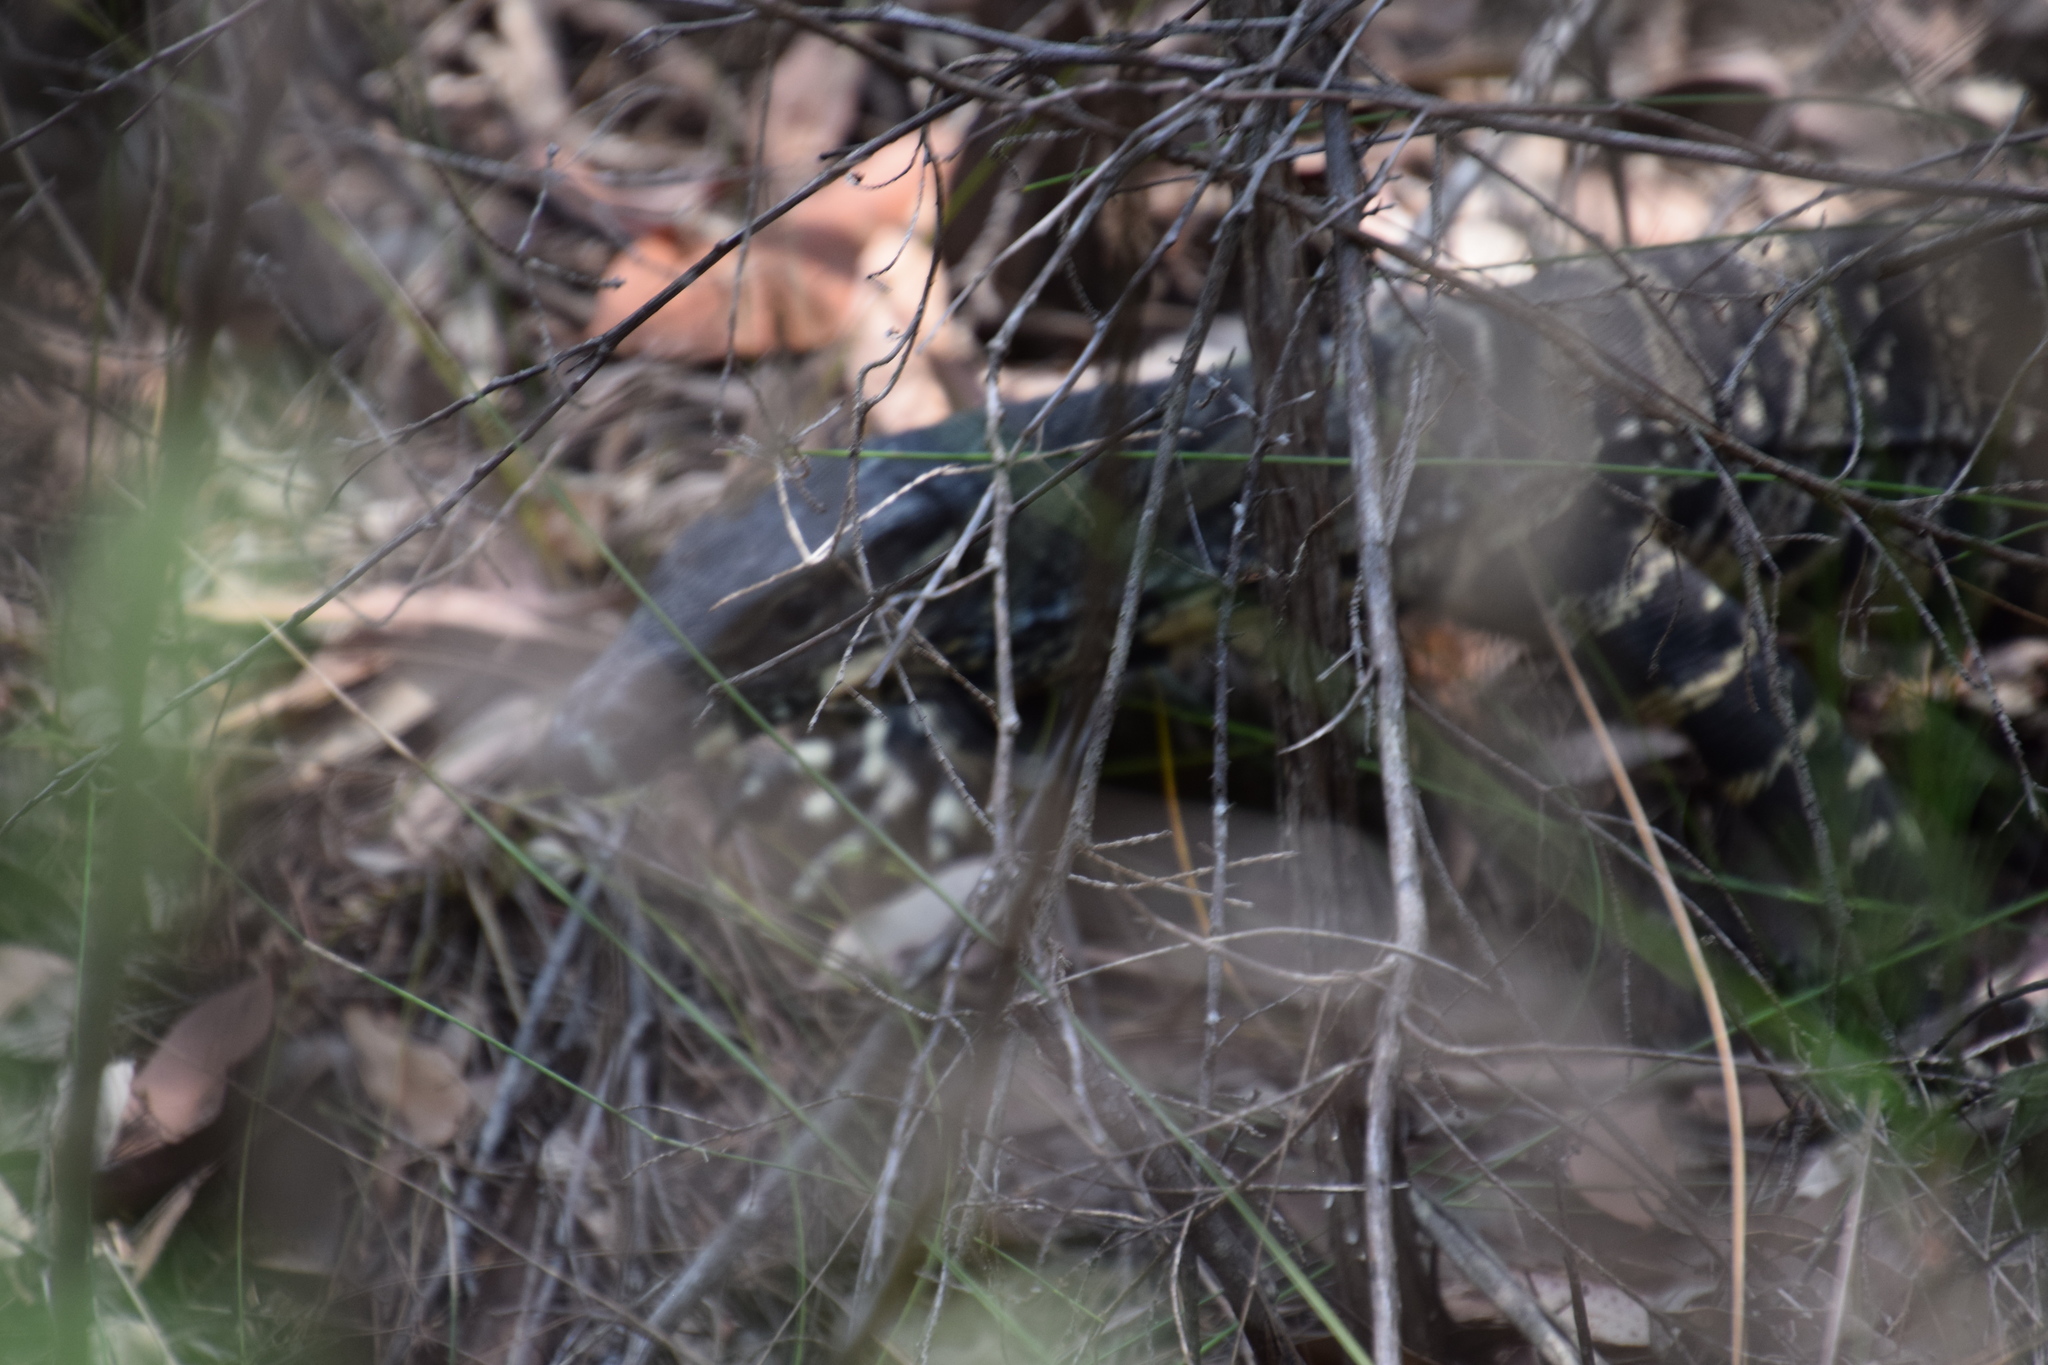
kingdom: Animalia
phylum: Chordata
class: Squamata
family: Varanidae
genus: Varanus
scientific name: Varanus varius
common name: Lace monitor
